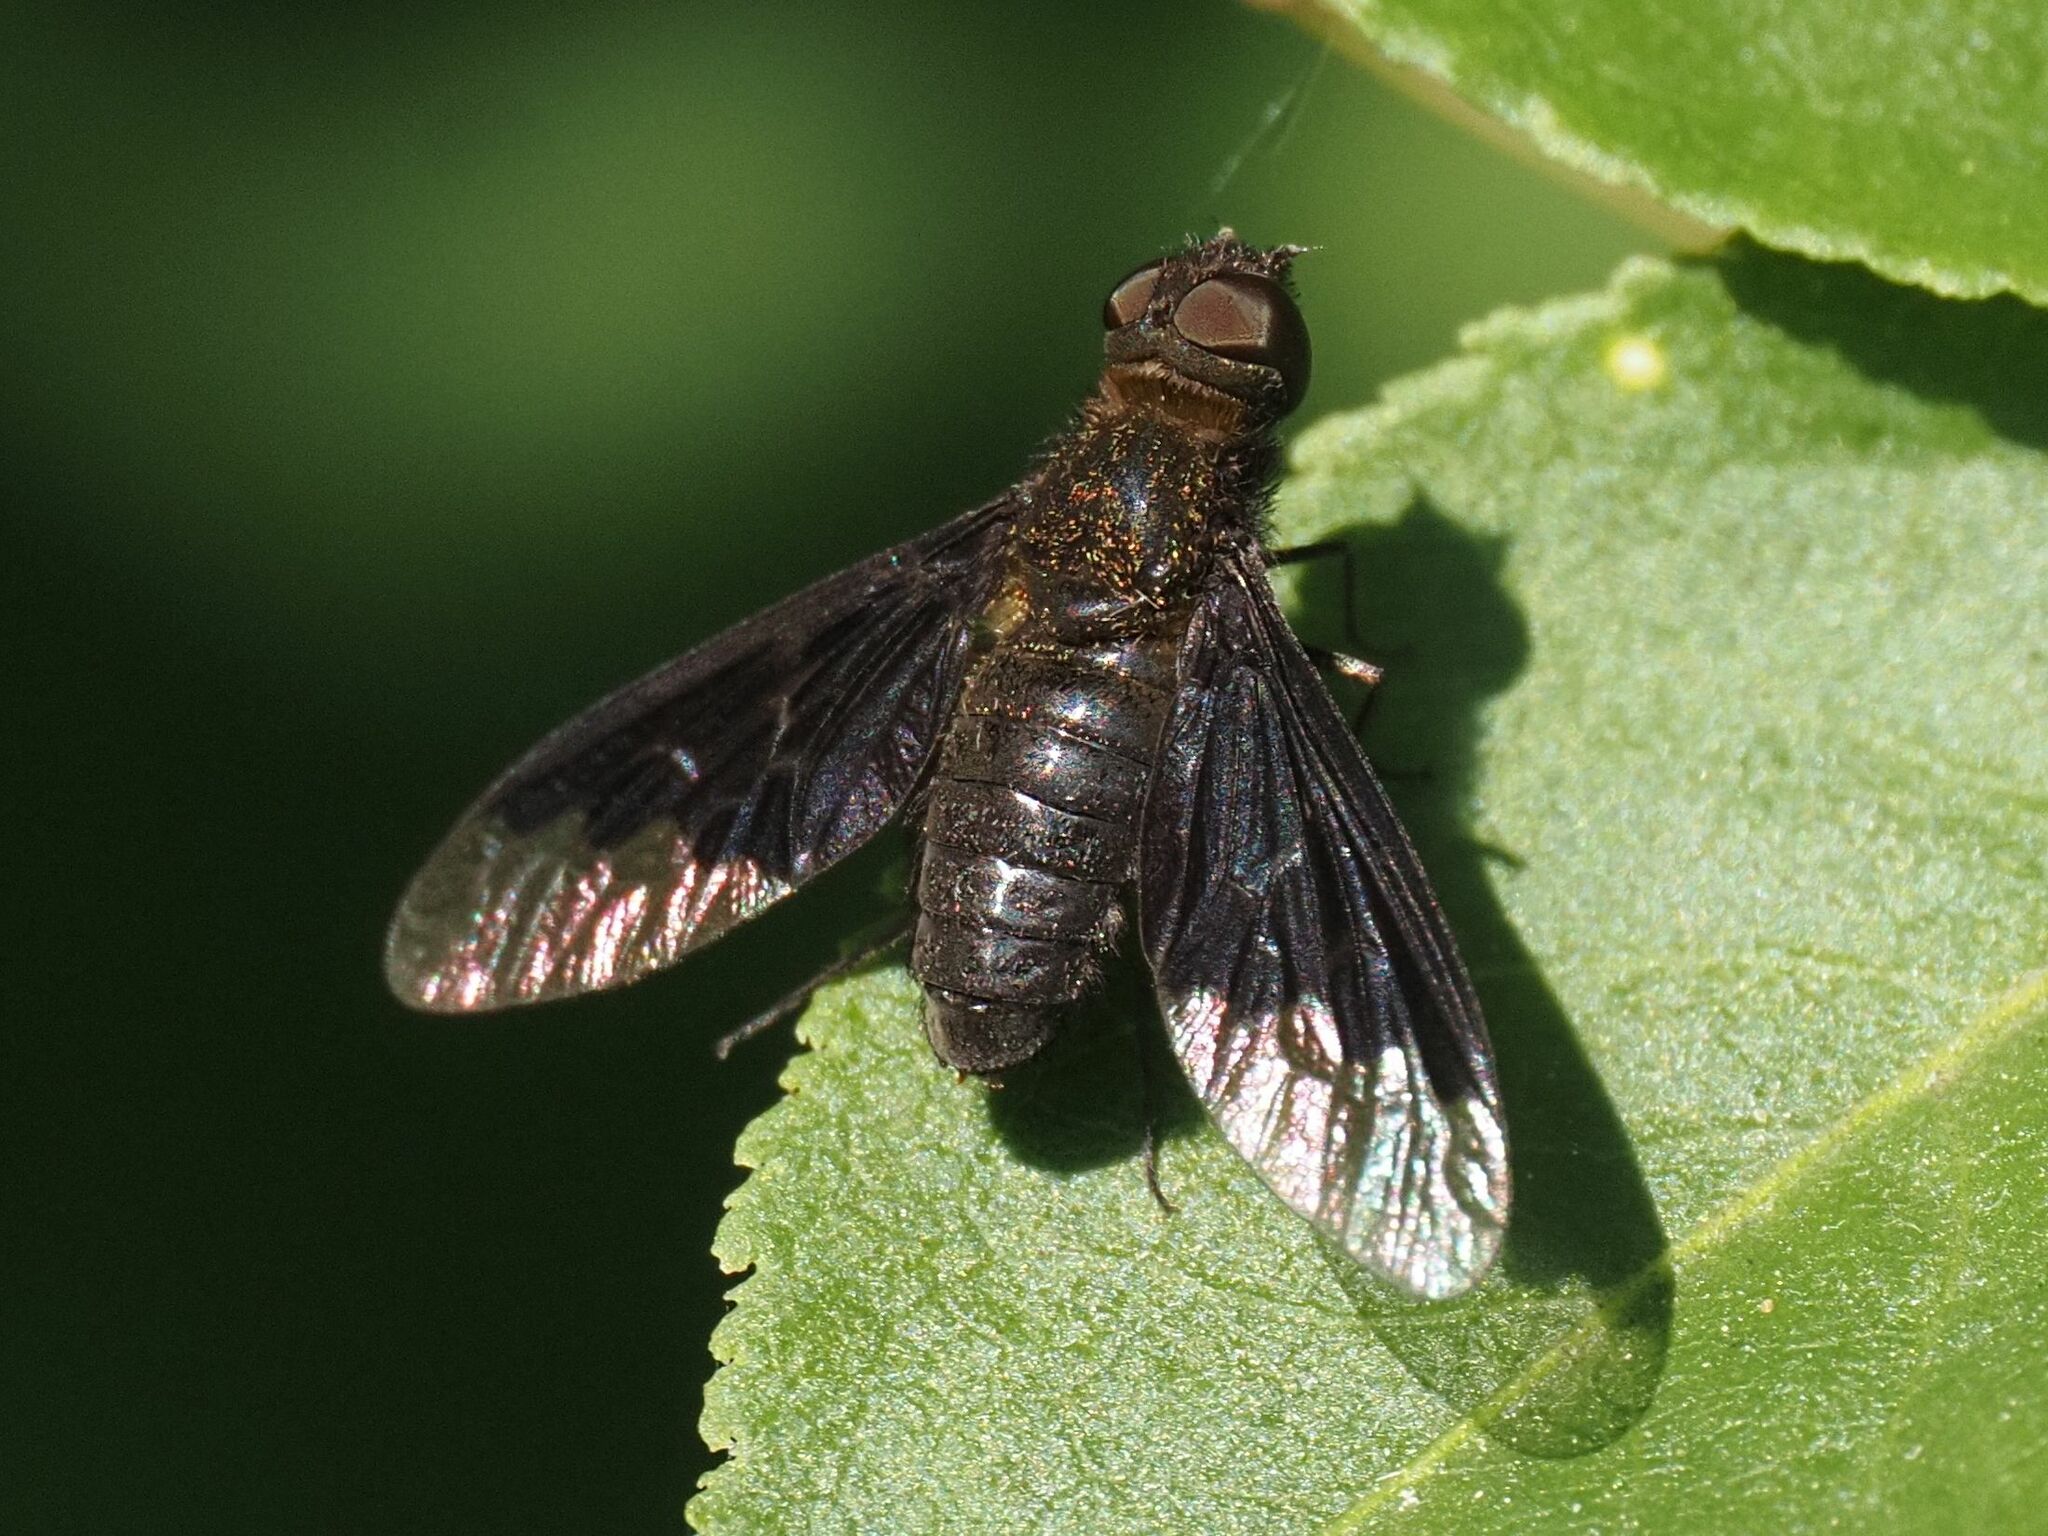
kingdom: Animalia
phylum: Arthropoda
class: Insecta
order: Diptera
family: Bombyliidae
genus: Hemipenthes
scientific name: Hemipenthes morio
